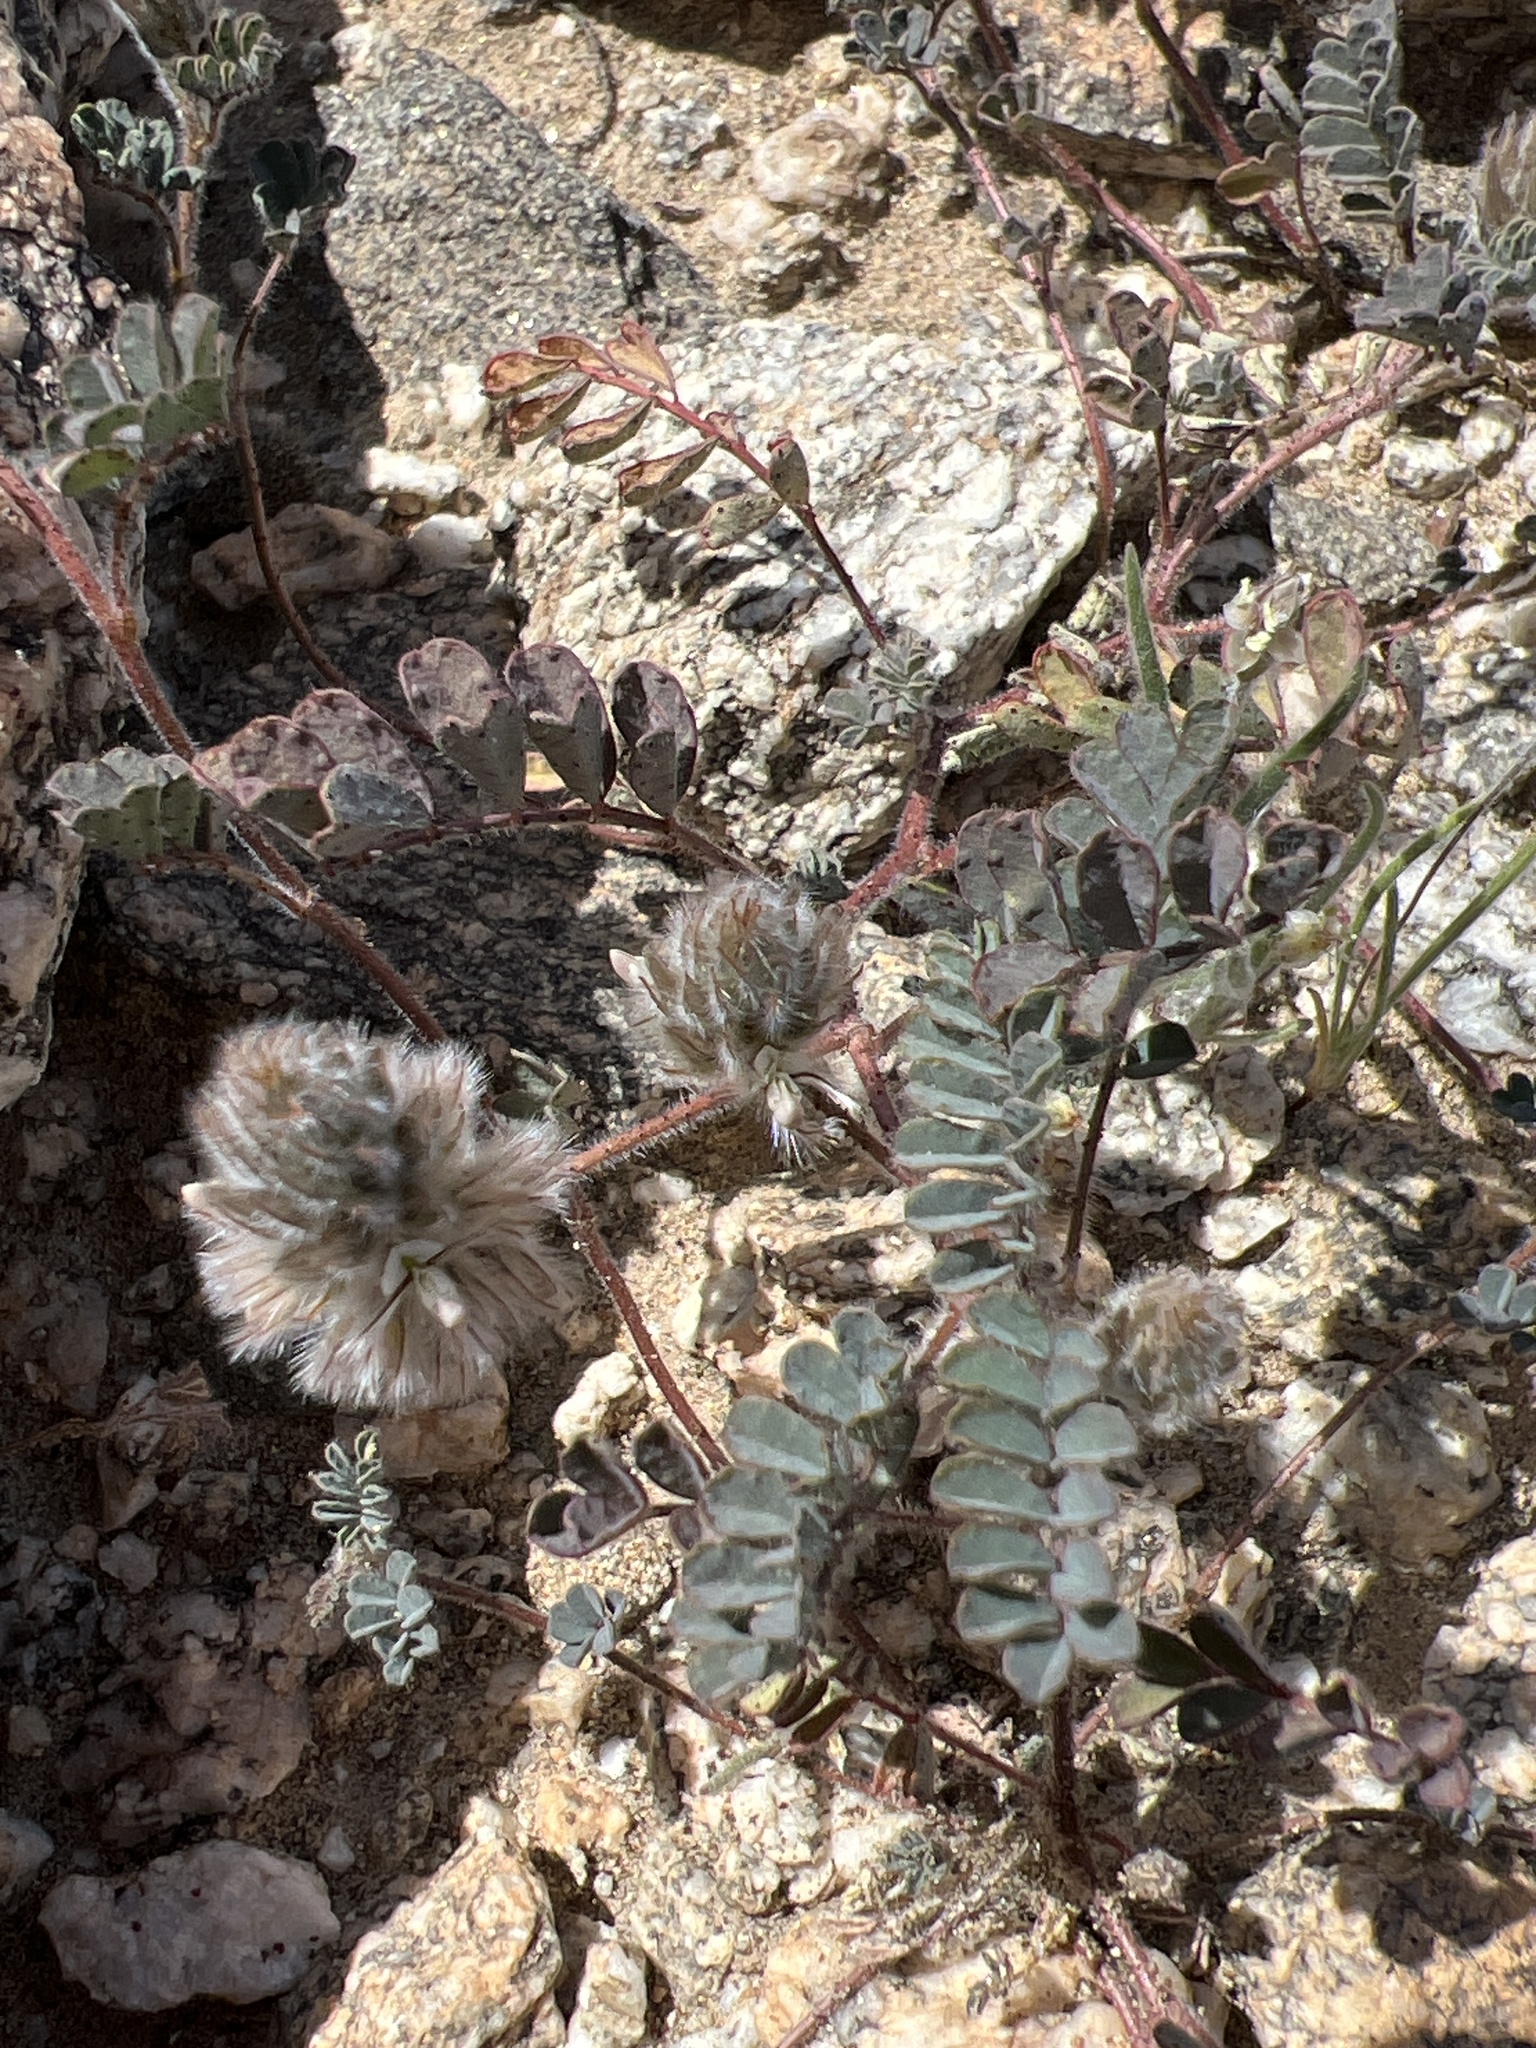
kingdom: Plantae
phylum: Tracheophyta
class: Magnoliopsida
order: Fabales
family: Fabaceae
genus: Dalea
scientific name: Dalea mollis
